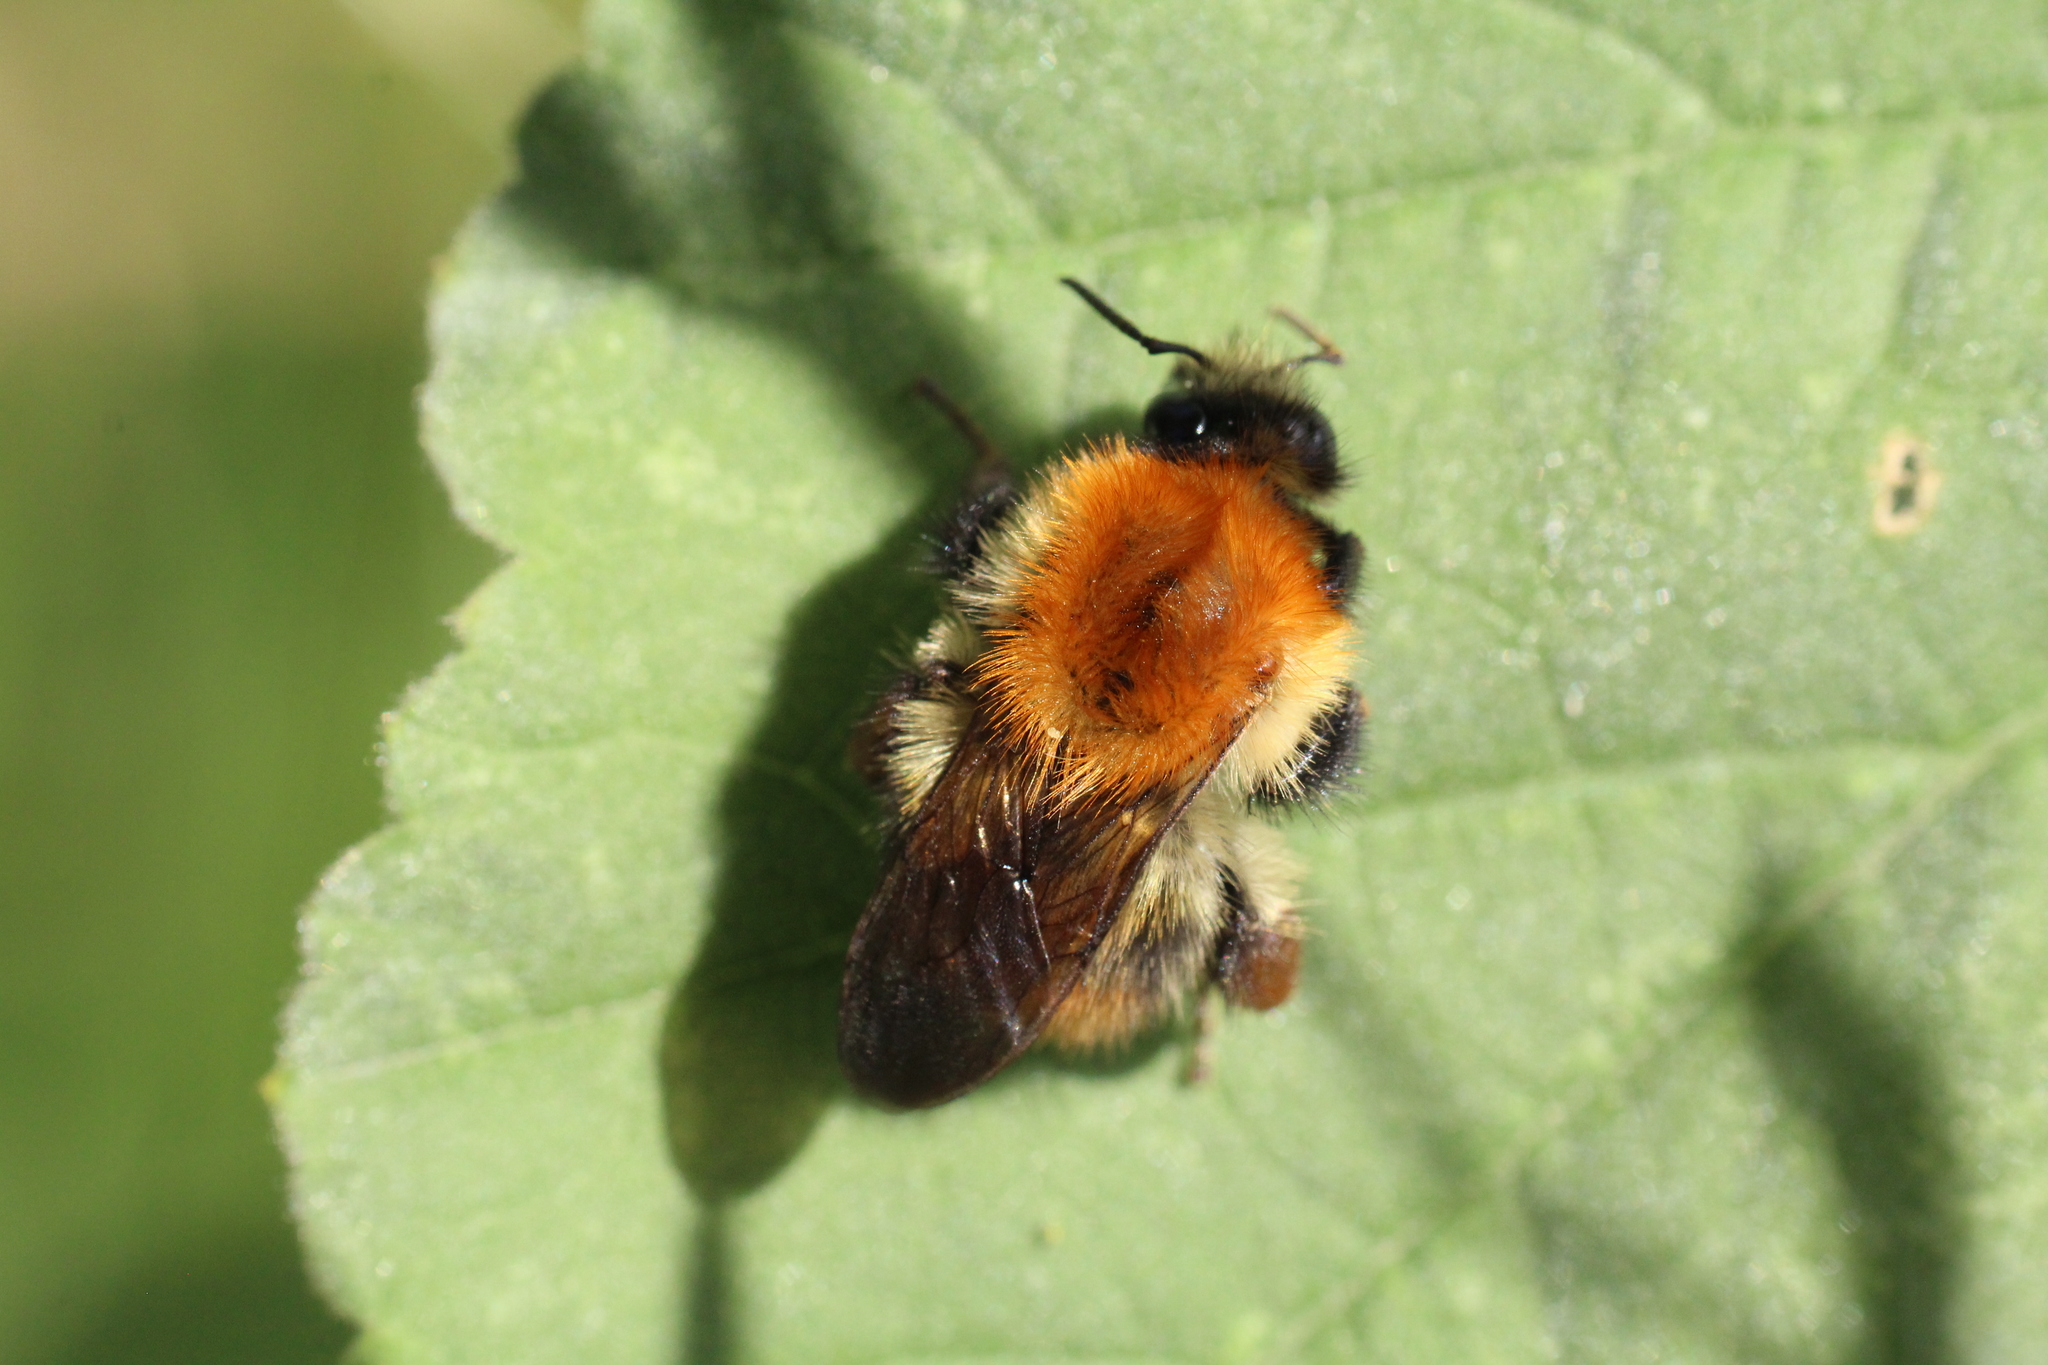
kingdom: Animalia
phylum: Arthropoda
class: Insecta
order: Hymenoptera
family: Apidae
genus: Bombus
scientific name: Bombus pascuorum
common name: Common carder bee
